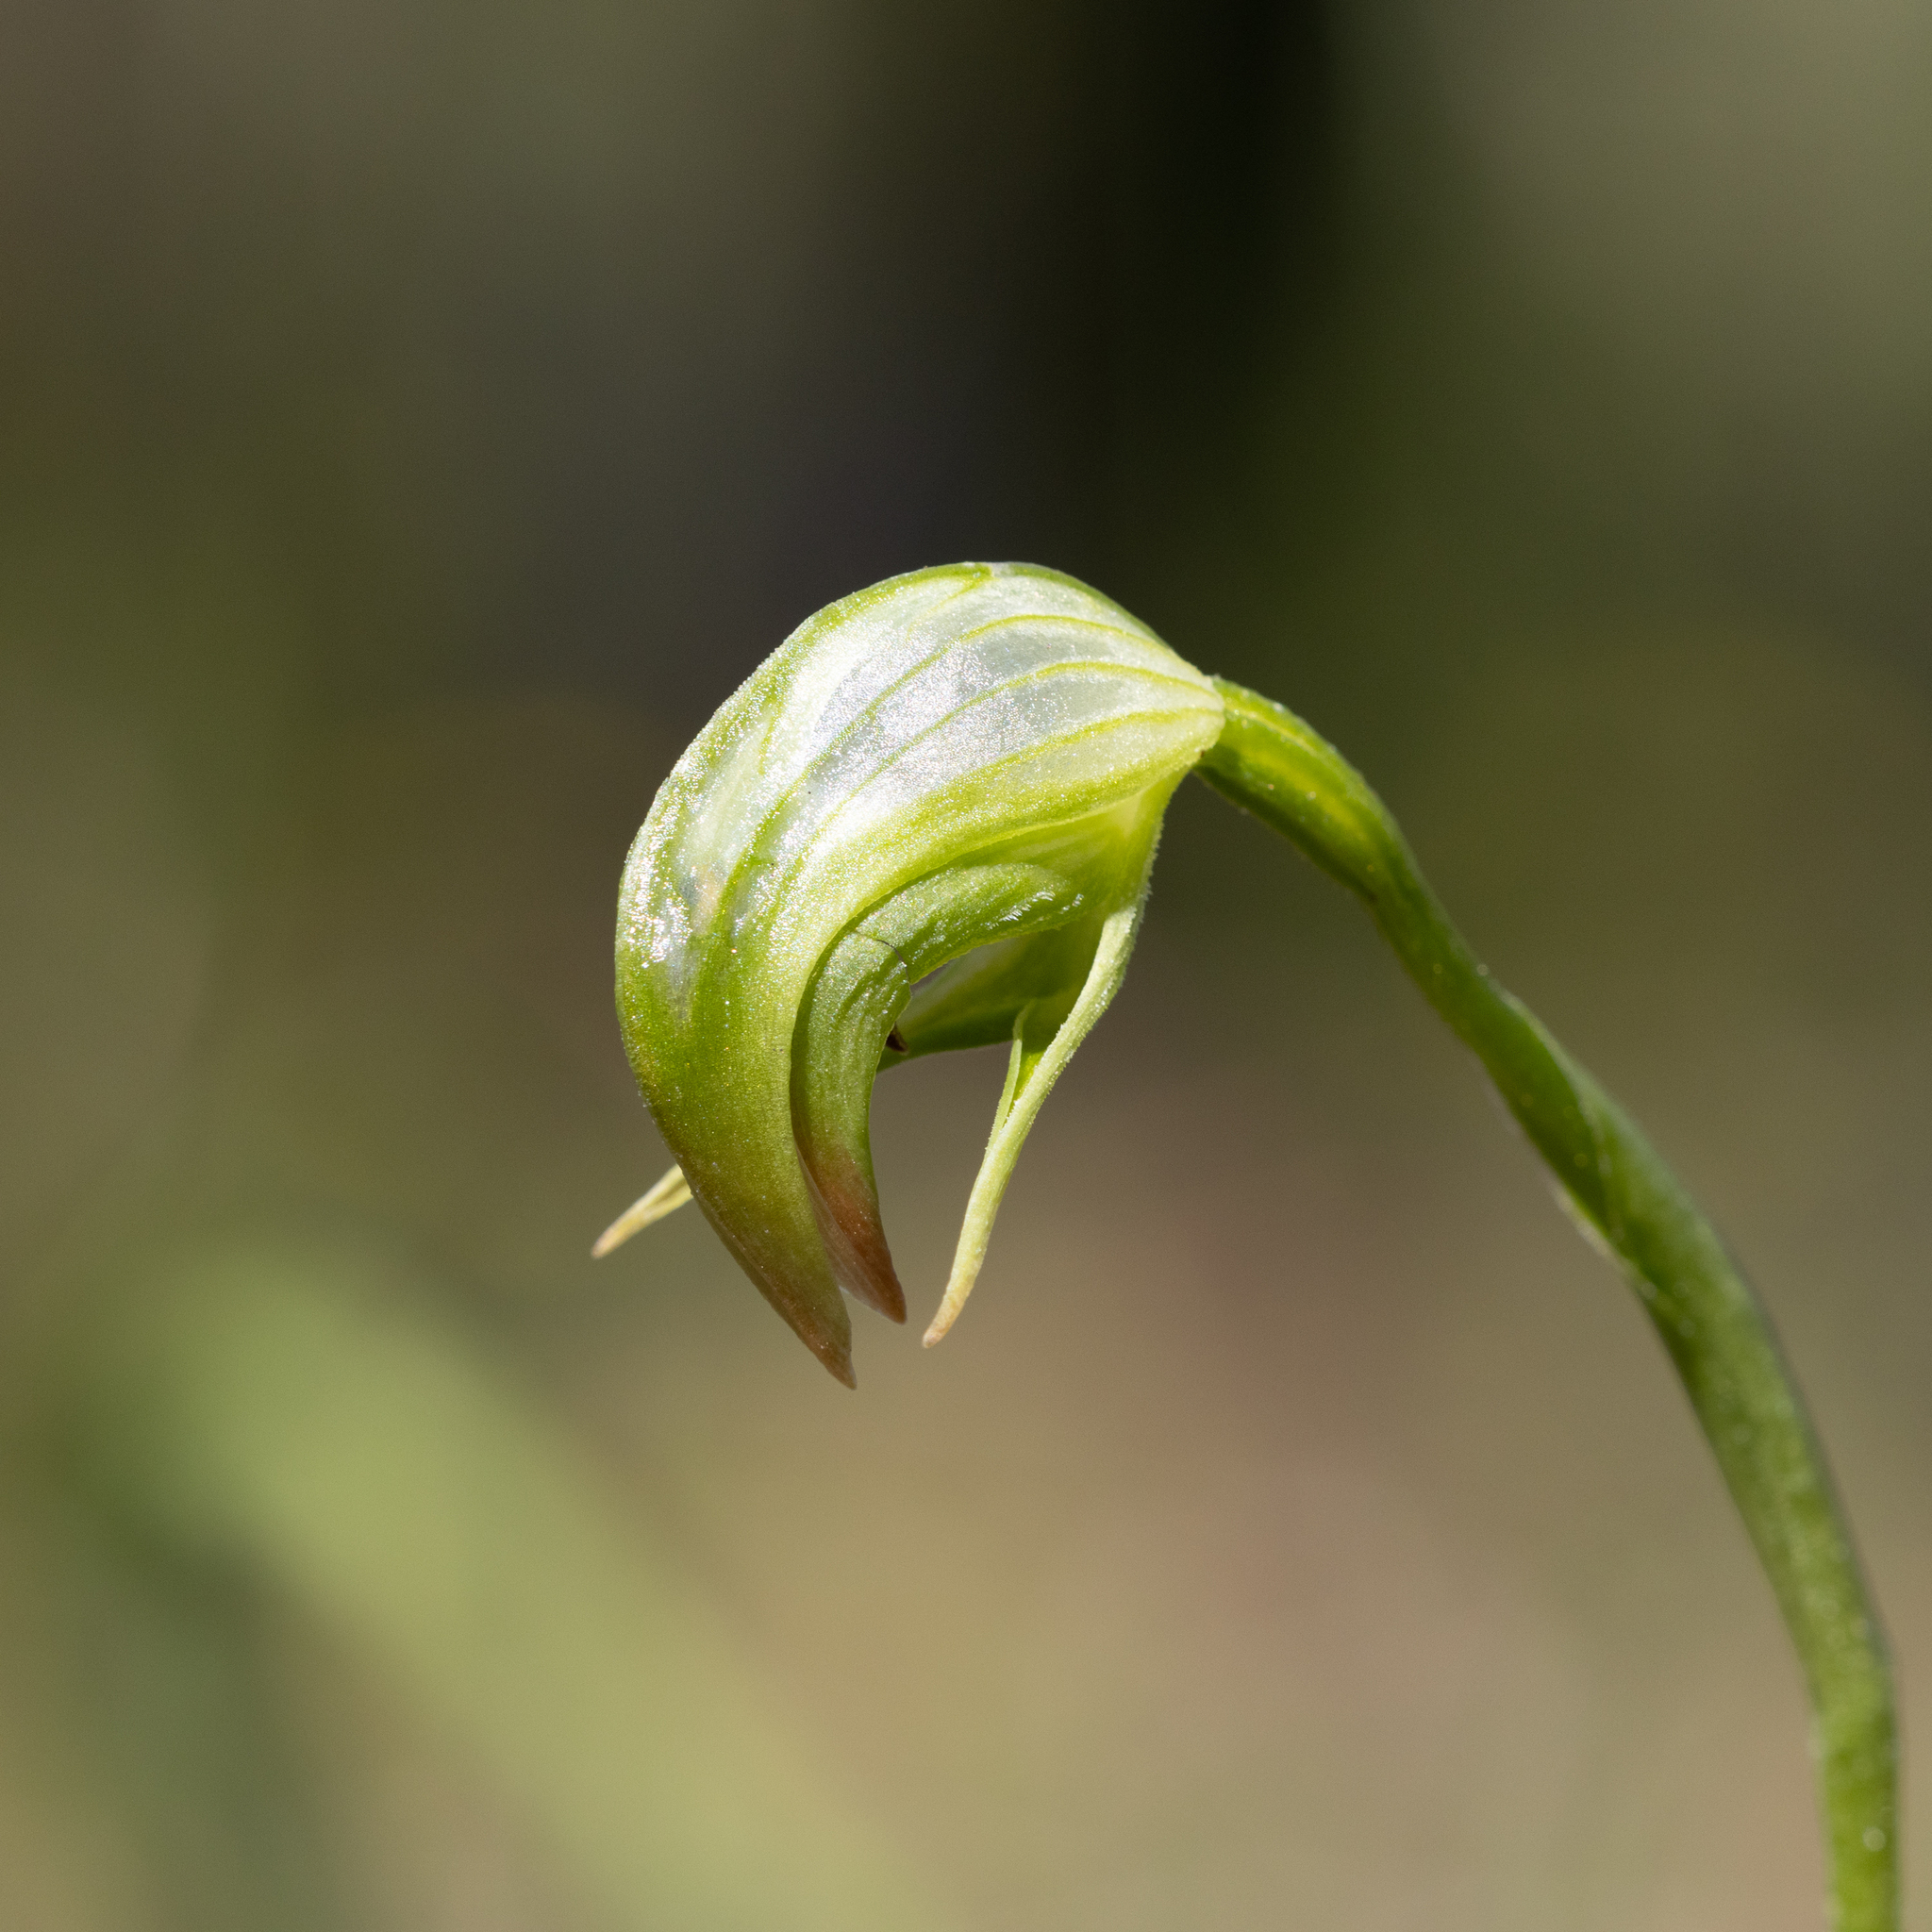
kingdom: Plantae
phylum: Tracheophyta
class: Liliopsida
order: Asparagales
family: Orchidaceae
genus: Pterostylis
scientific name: Pterostylis nutans
